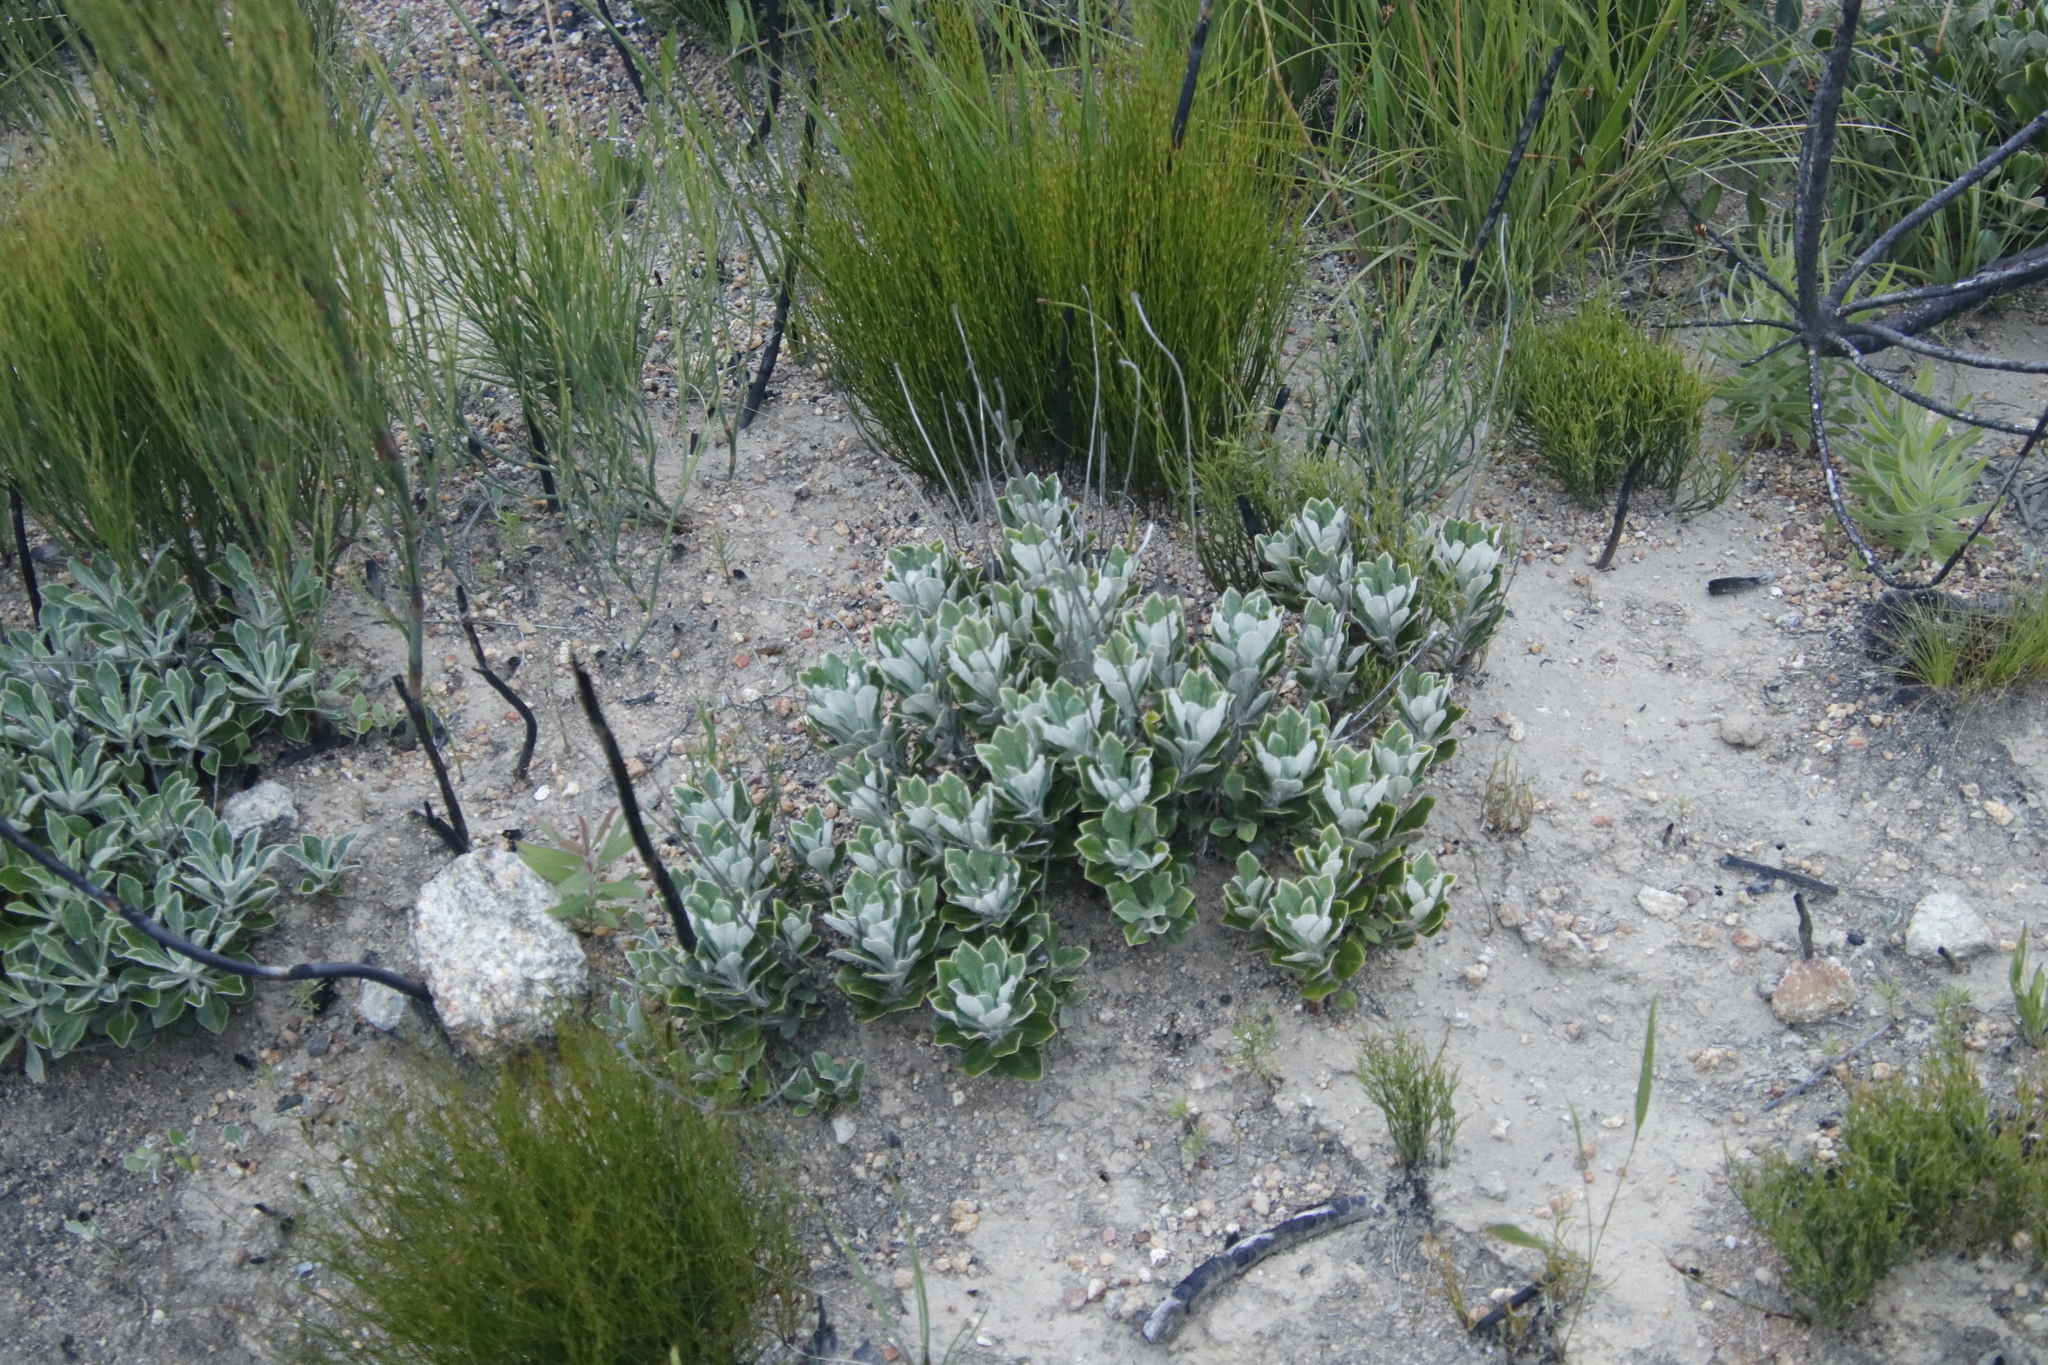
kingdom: Plantae
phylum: Tracheophyta
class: Magnoliopsida
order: Asterales
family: Asteraceae
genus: Osteospermum
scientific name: Osteospermum tomentosum
